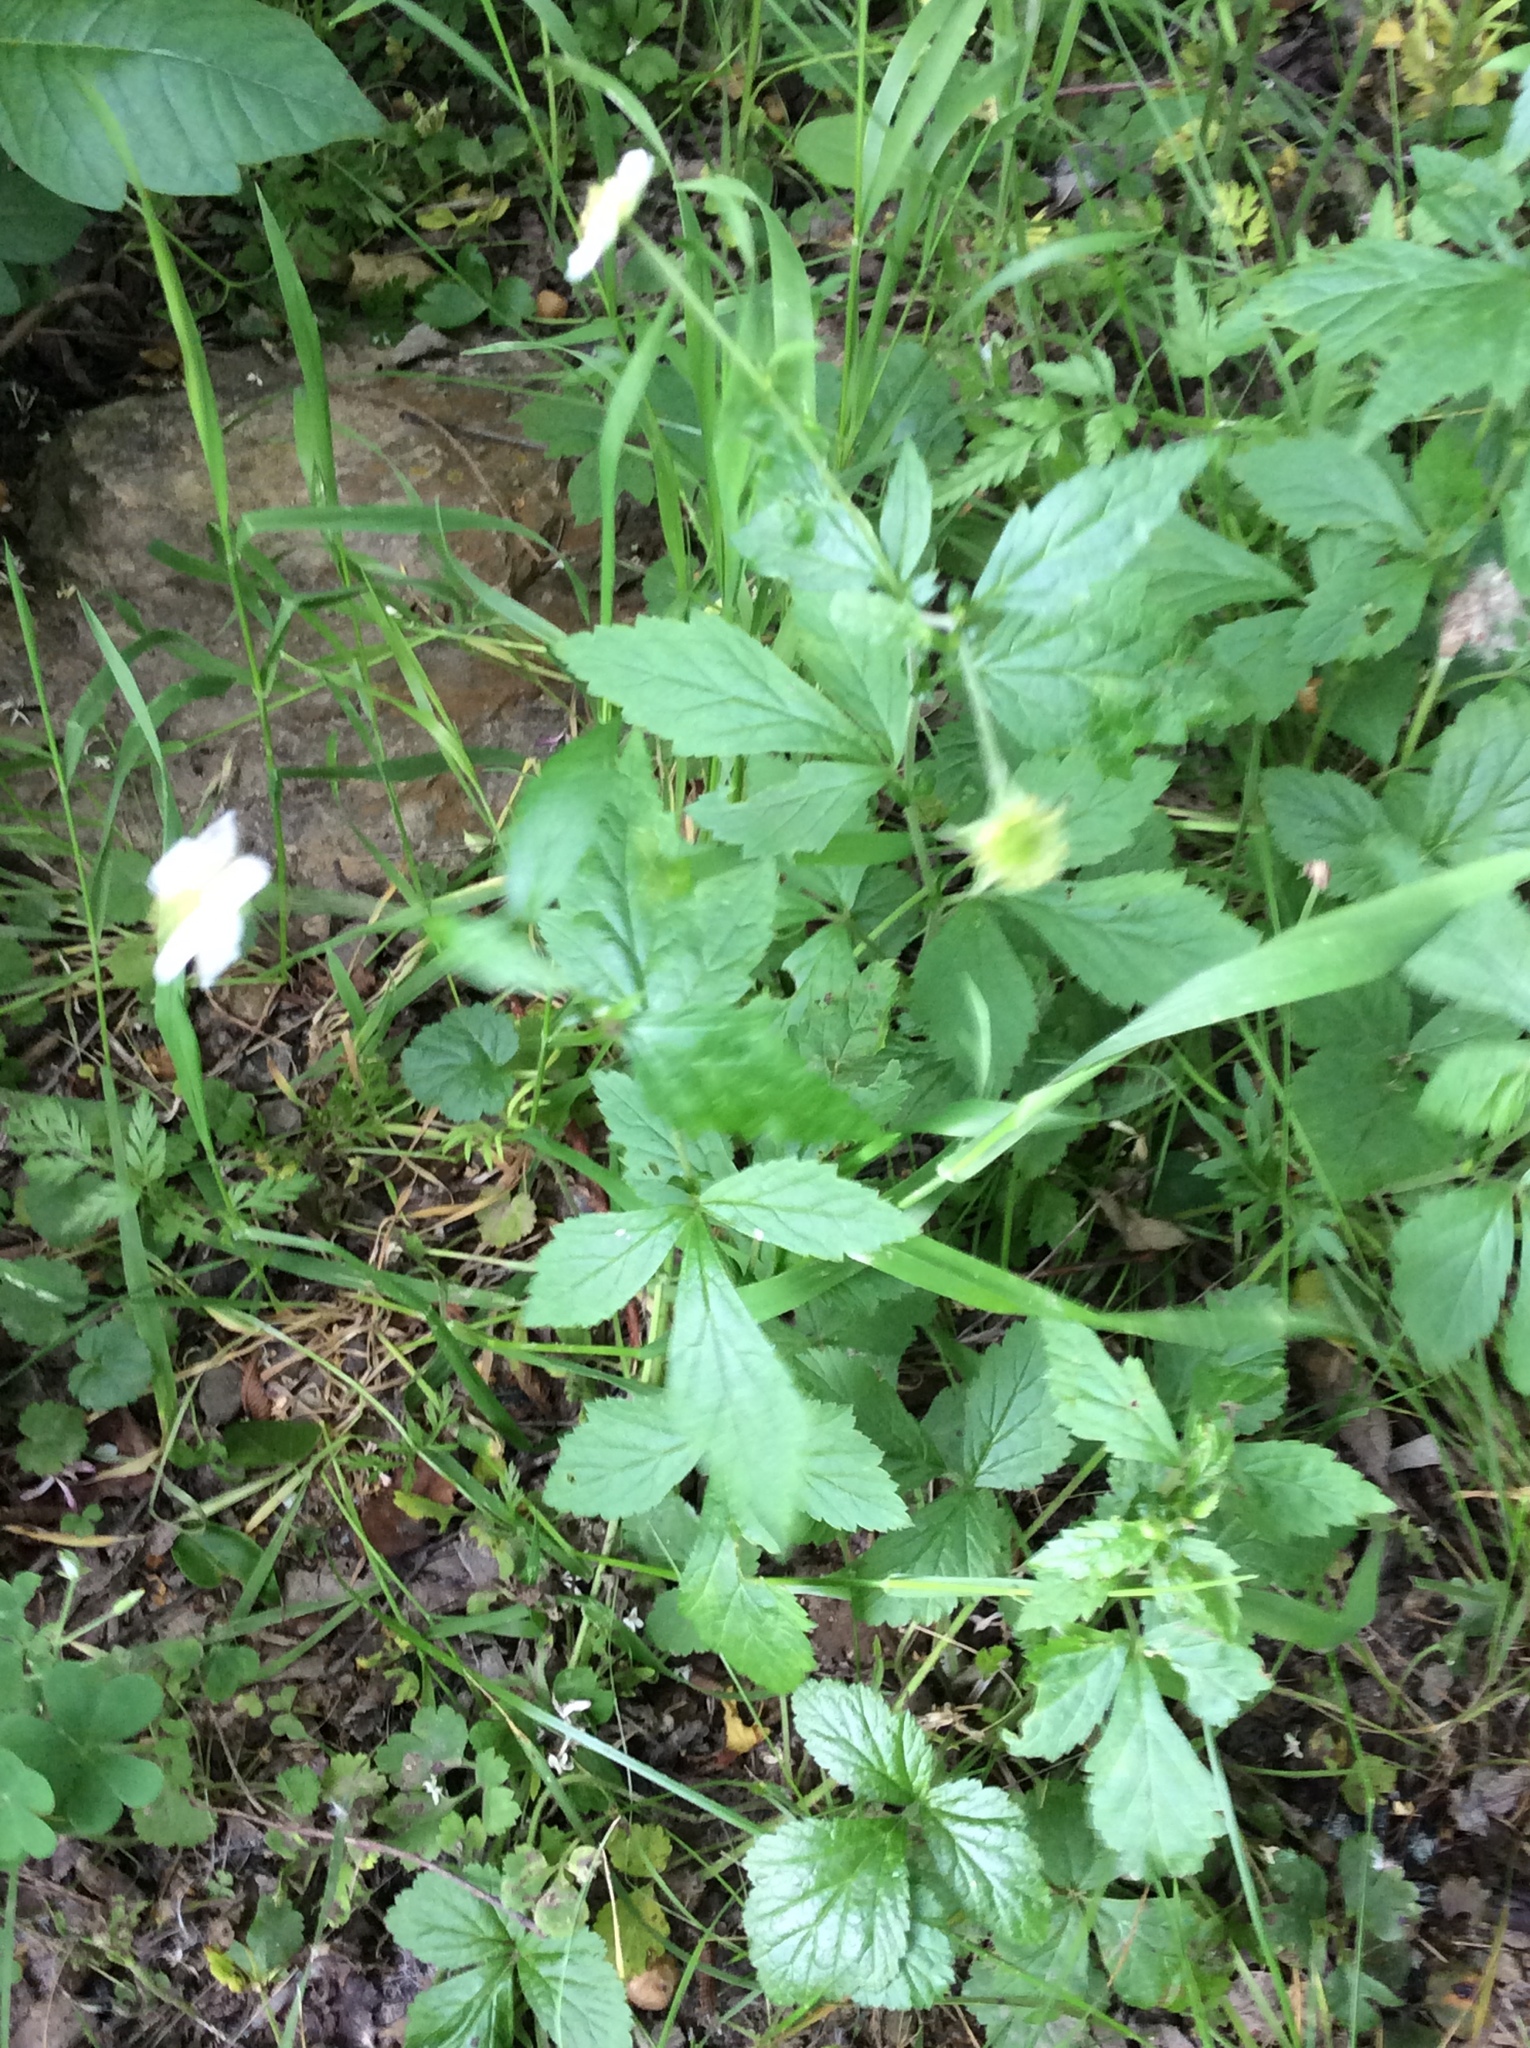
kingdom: Plantae
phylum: Tracheophyta
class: Magnoliopsida
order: Rosales
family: Rosaceae
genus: Geum
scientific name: Geum canadense
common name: White avens
